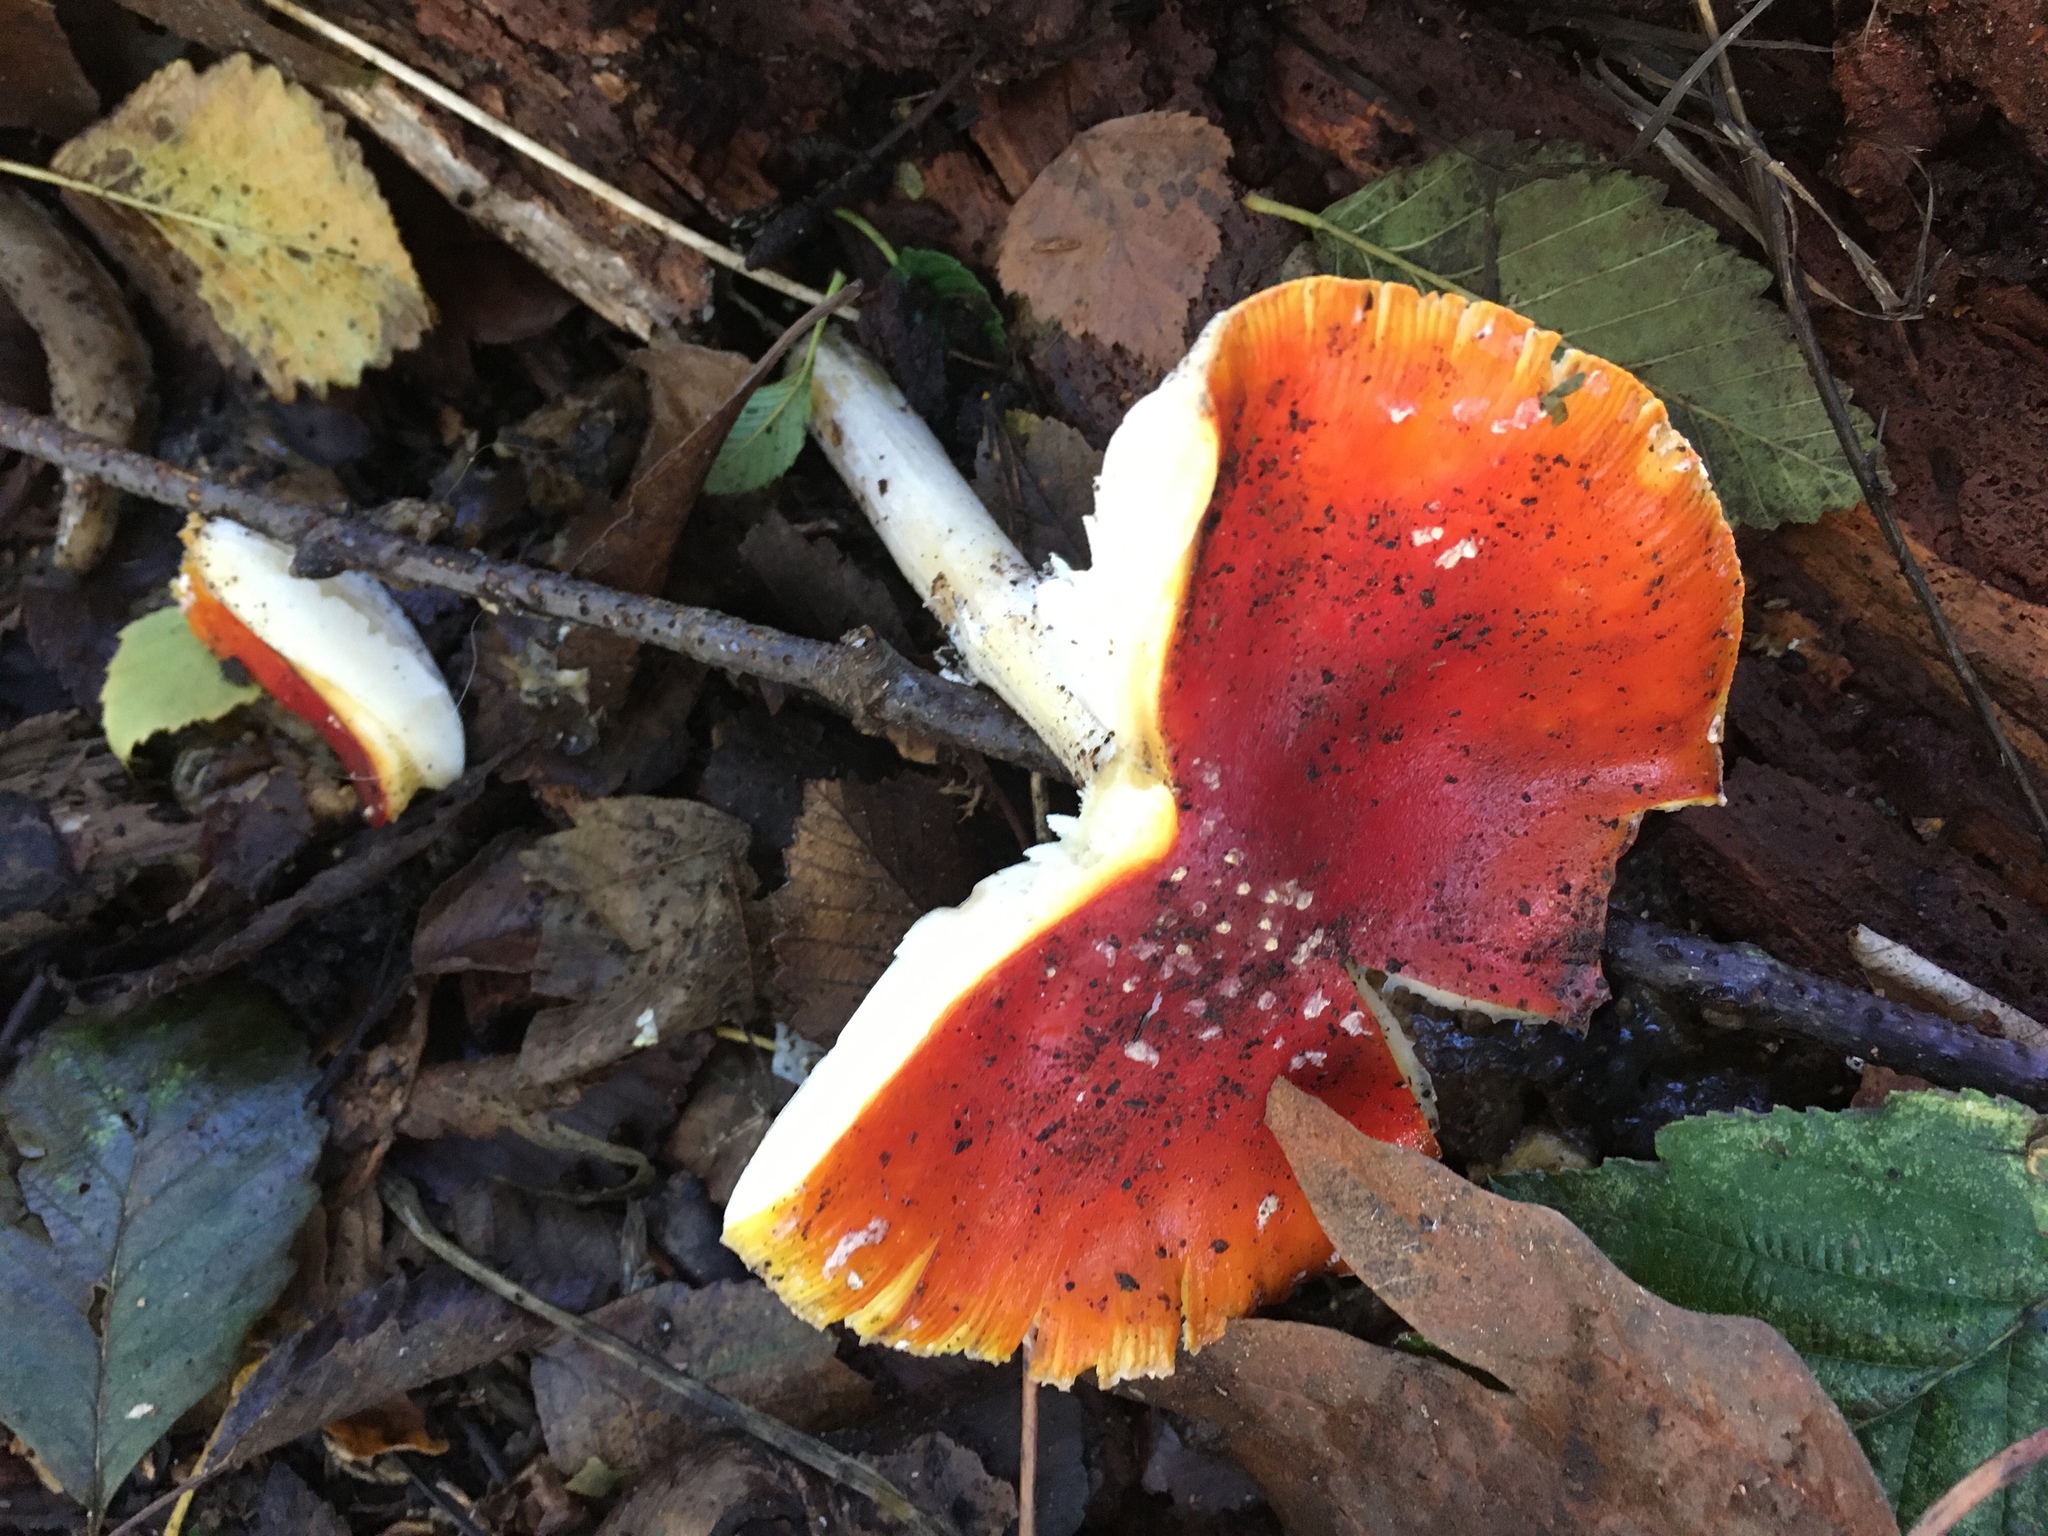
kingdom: Fungi
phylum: Basidiomycota
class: Agaricomycetes
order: Agaricales
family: Amanitaceae
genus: Amanita
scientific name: Amanita muscaria
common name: Fly agaric
